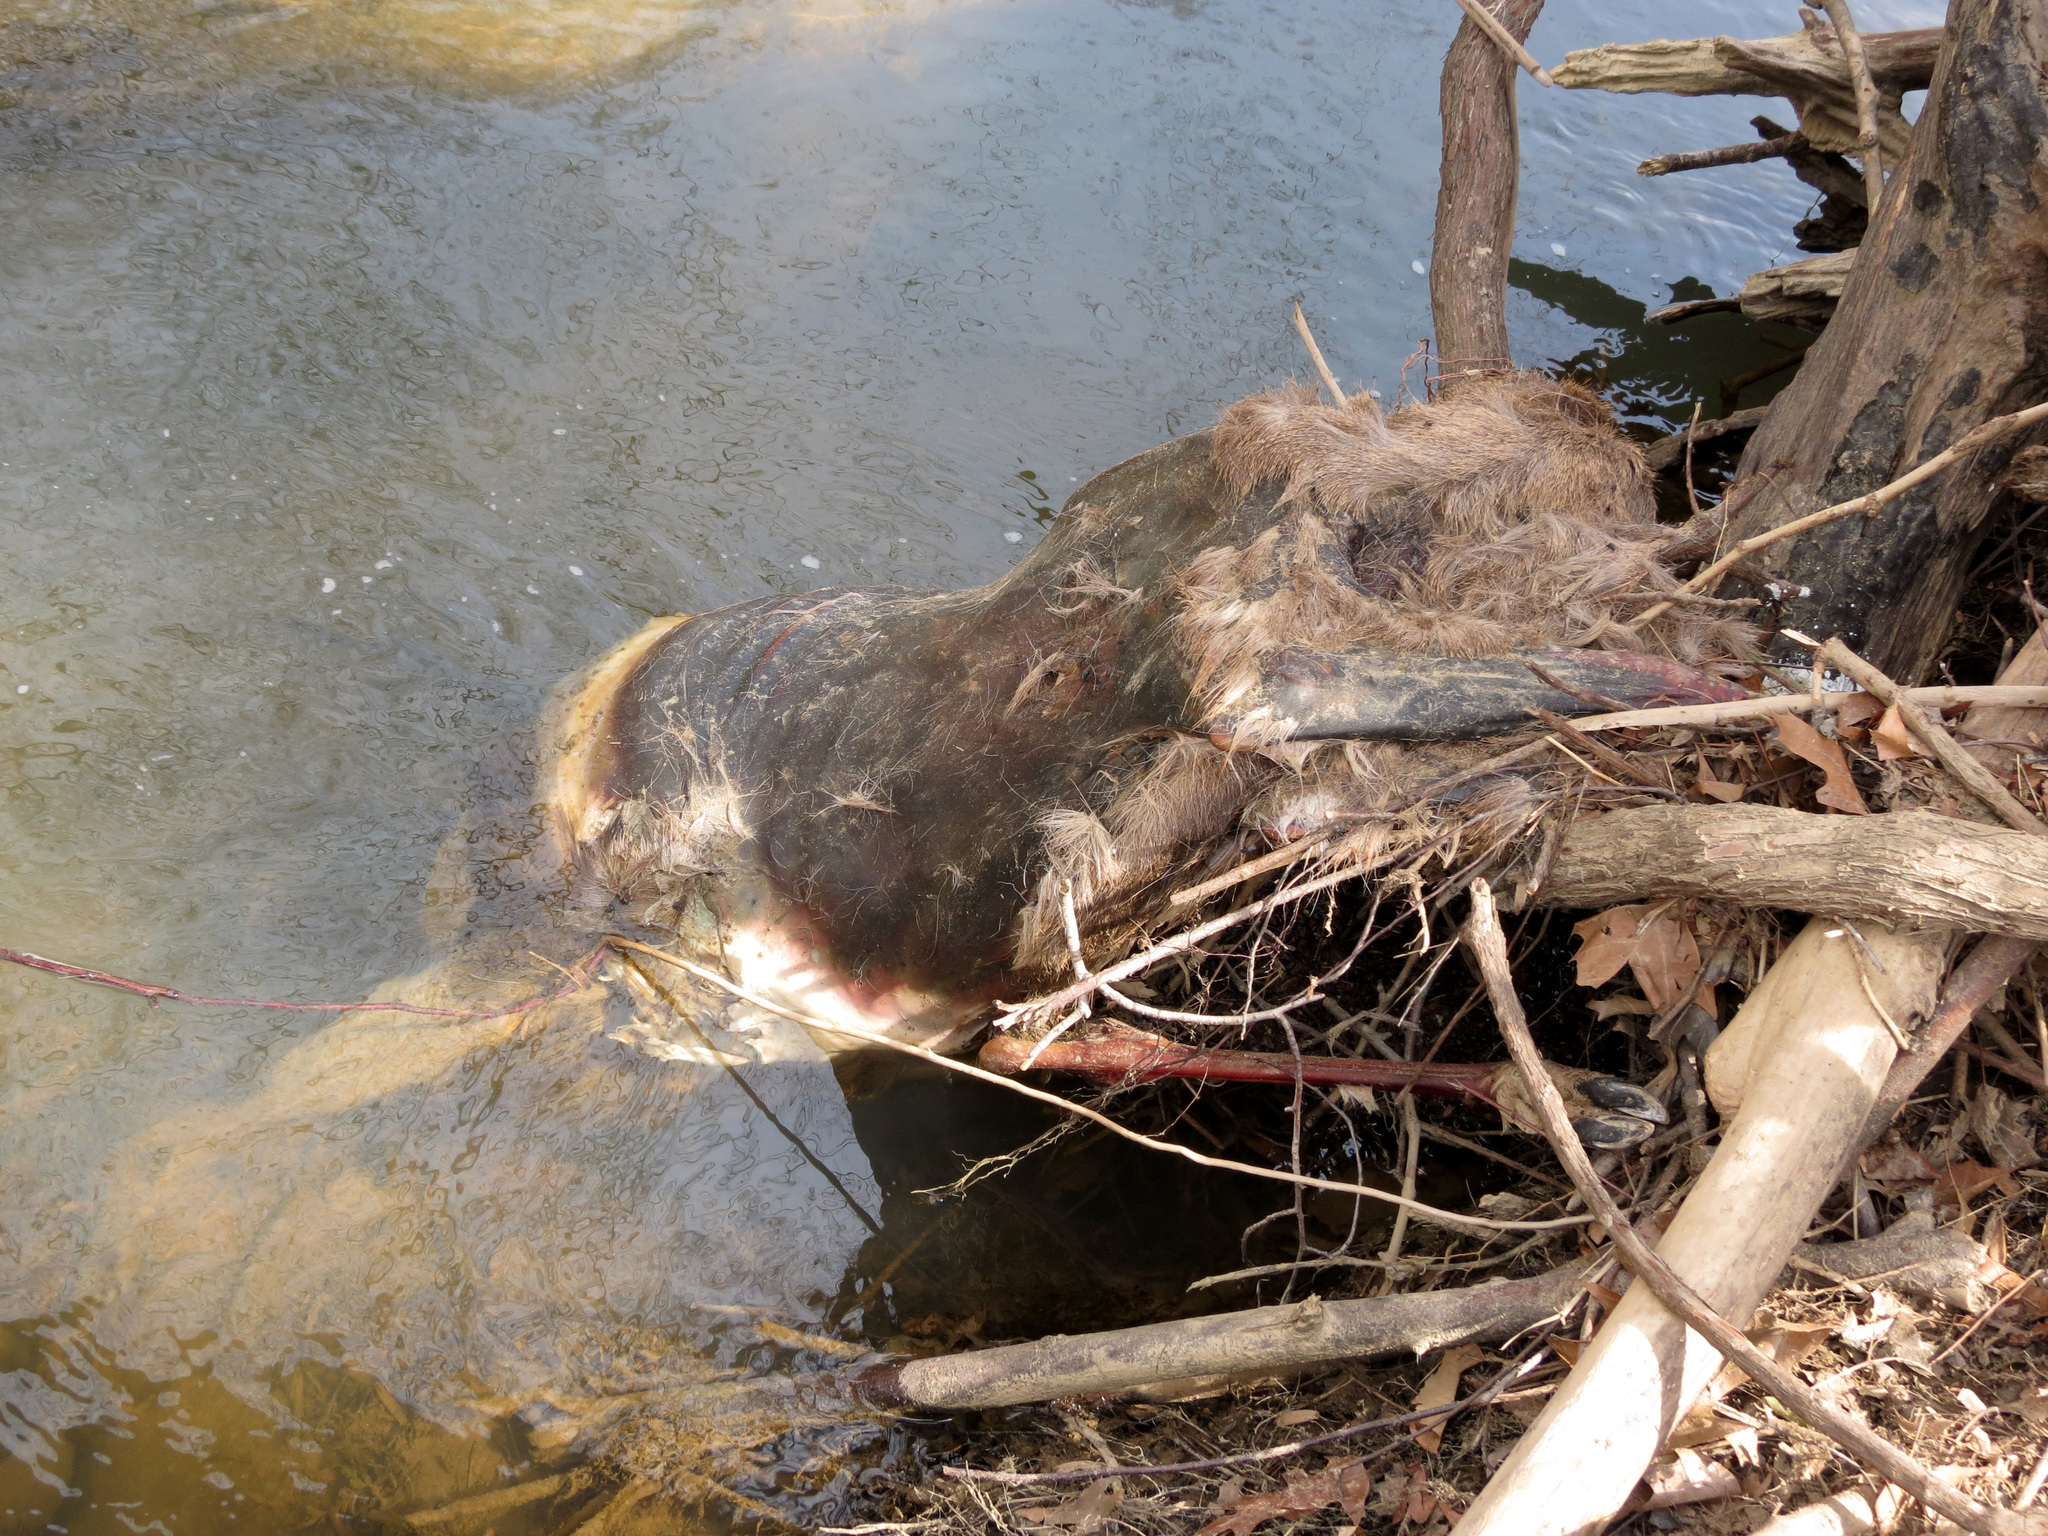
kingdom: Animalia
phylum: Chordata
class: Mammalia
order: Artiodactyla
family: Cervidae
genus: Odocoileus
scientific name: Odocoileus virginianus
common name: White-tailed deer
